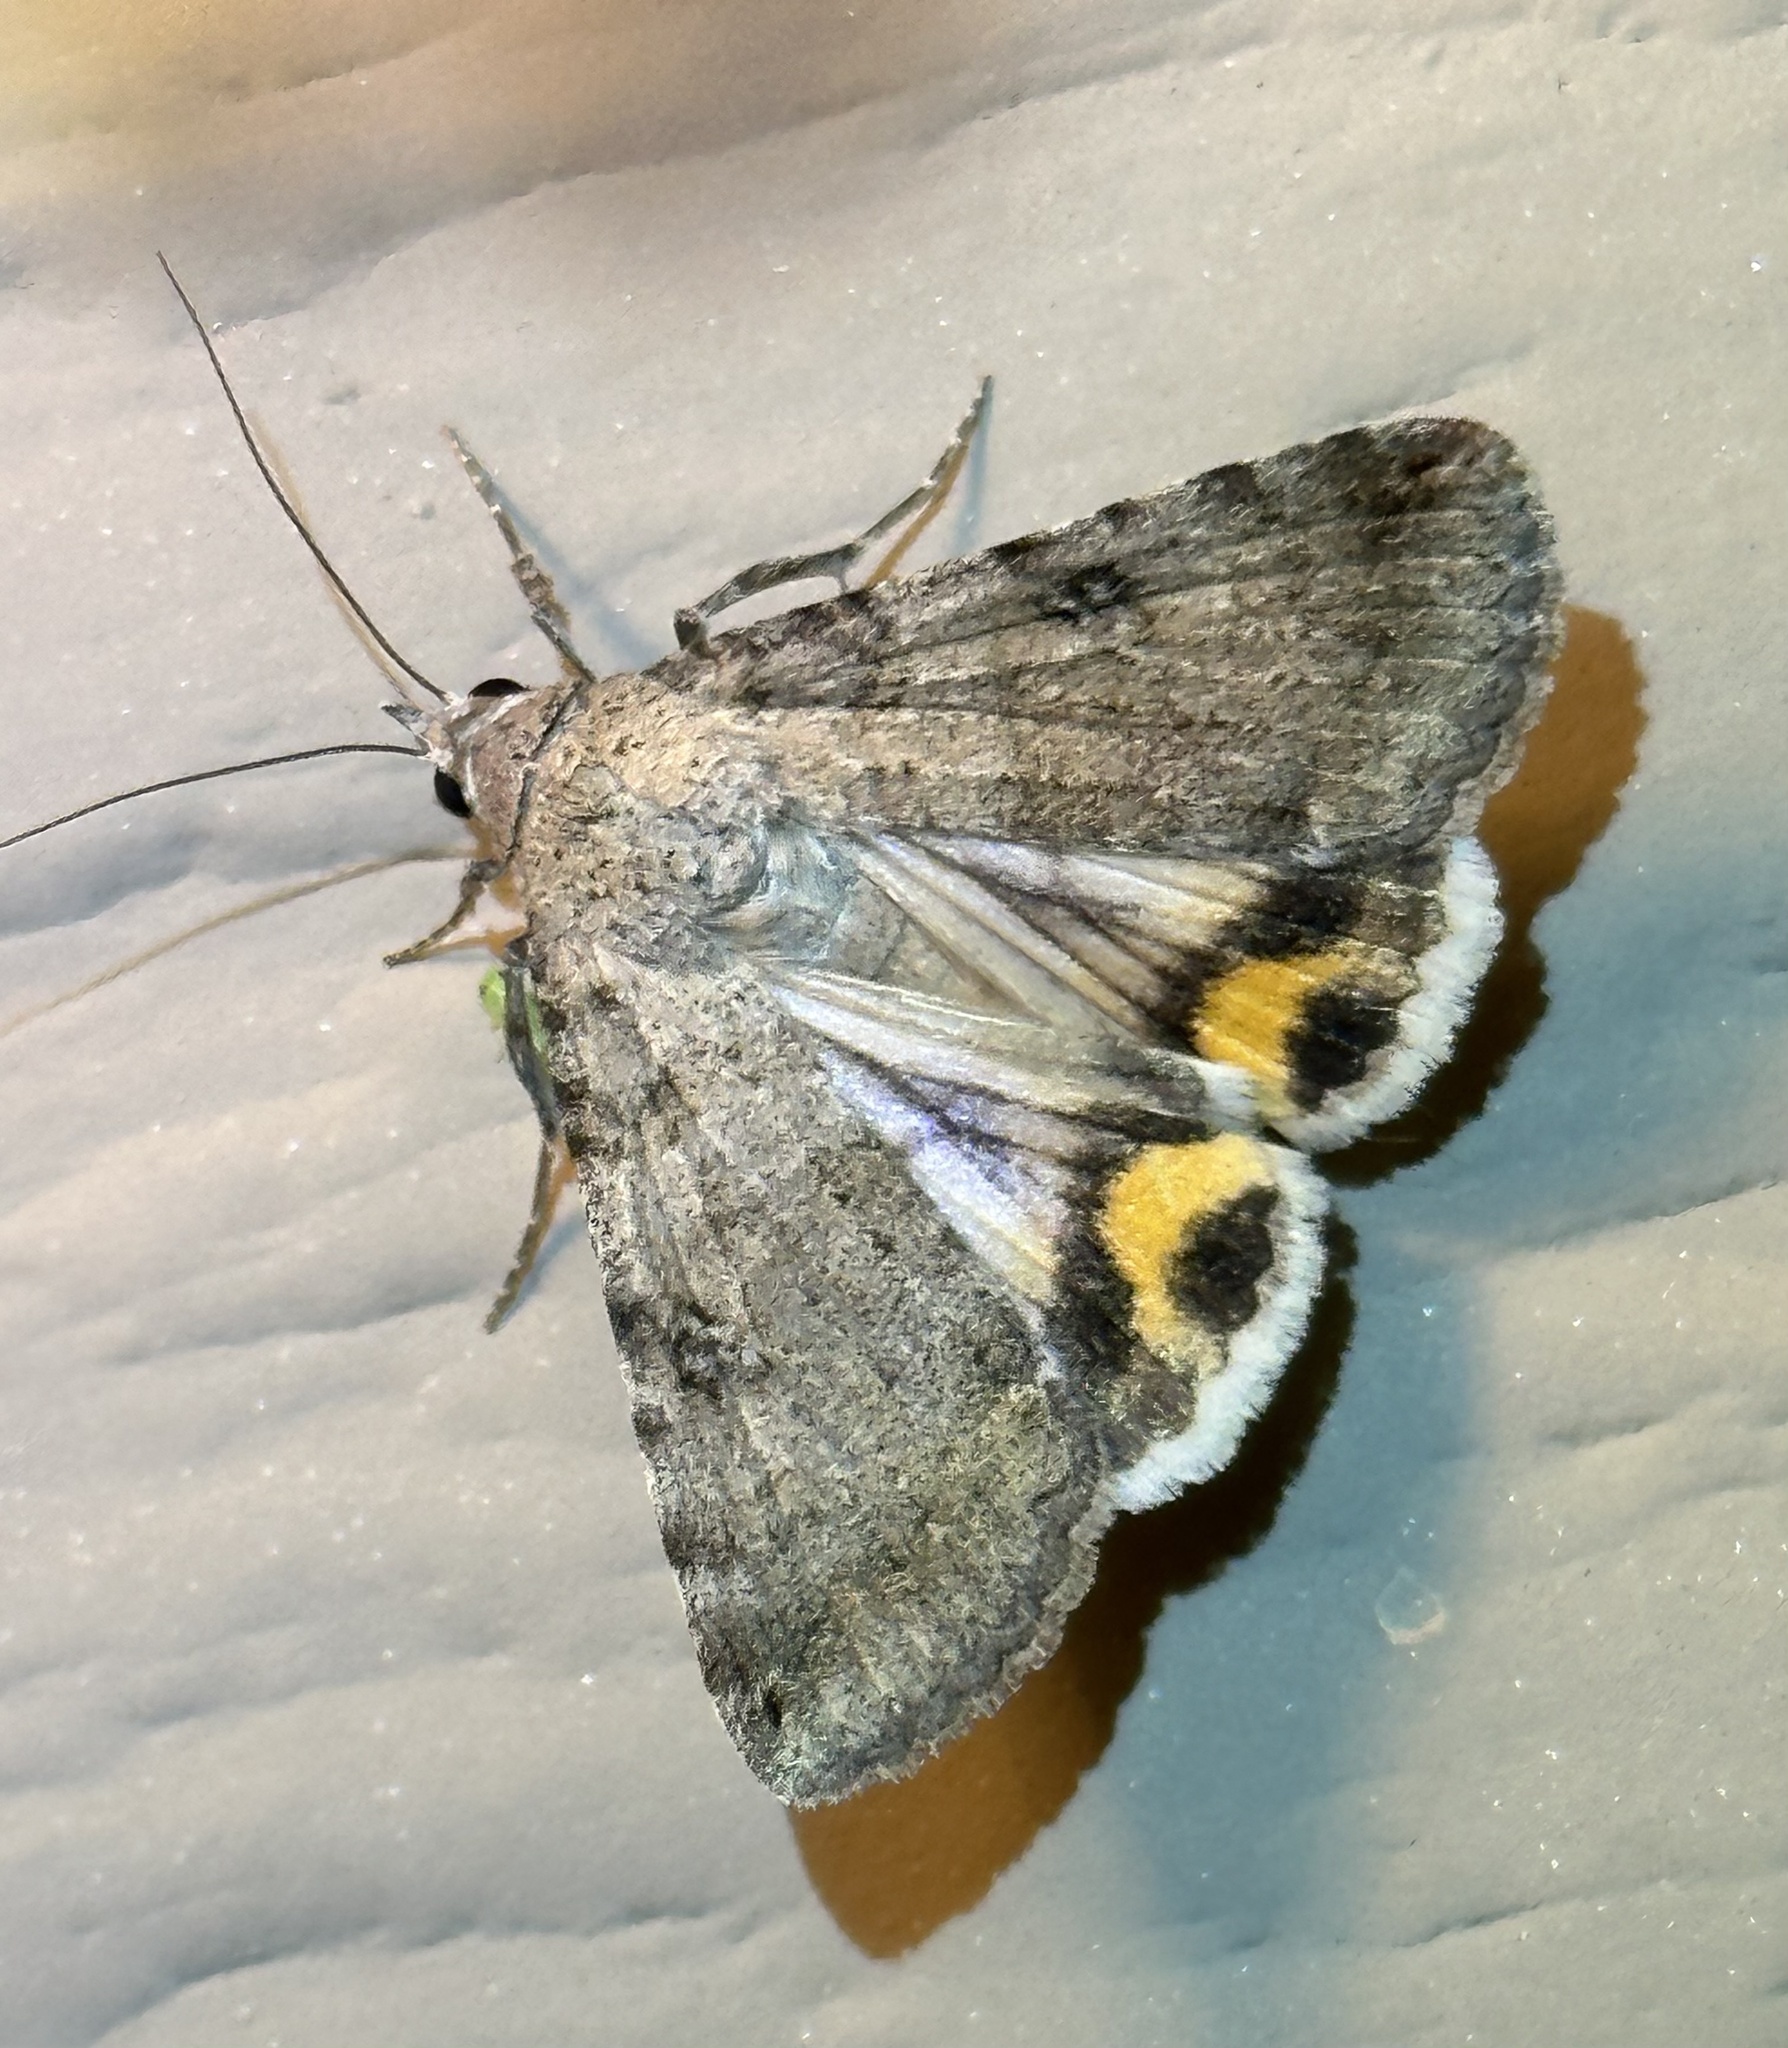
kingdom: Animalia
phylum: Arthropoda
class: Insecta
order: Lepidoptera
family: Erebidae
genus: Bulia
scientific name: Bulia deducta
